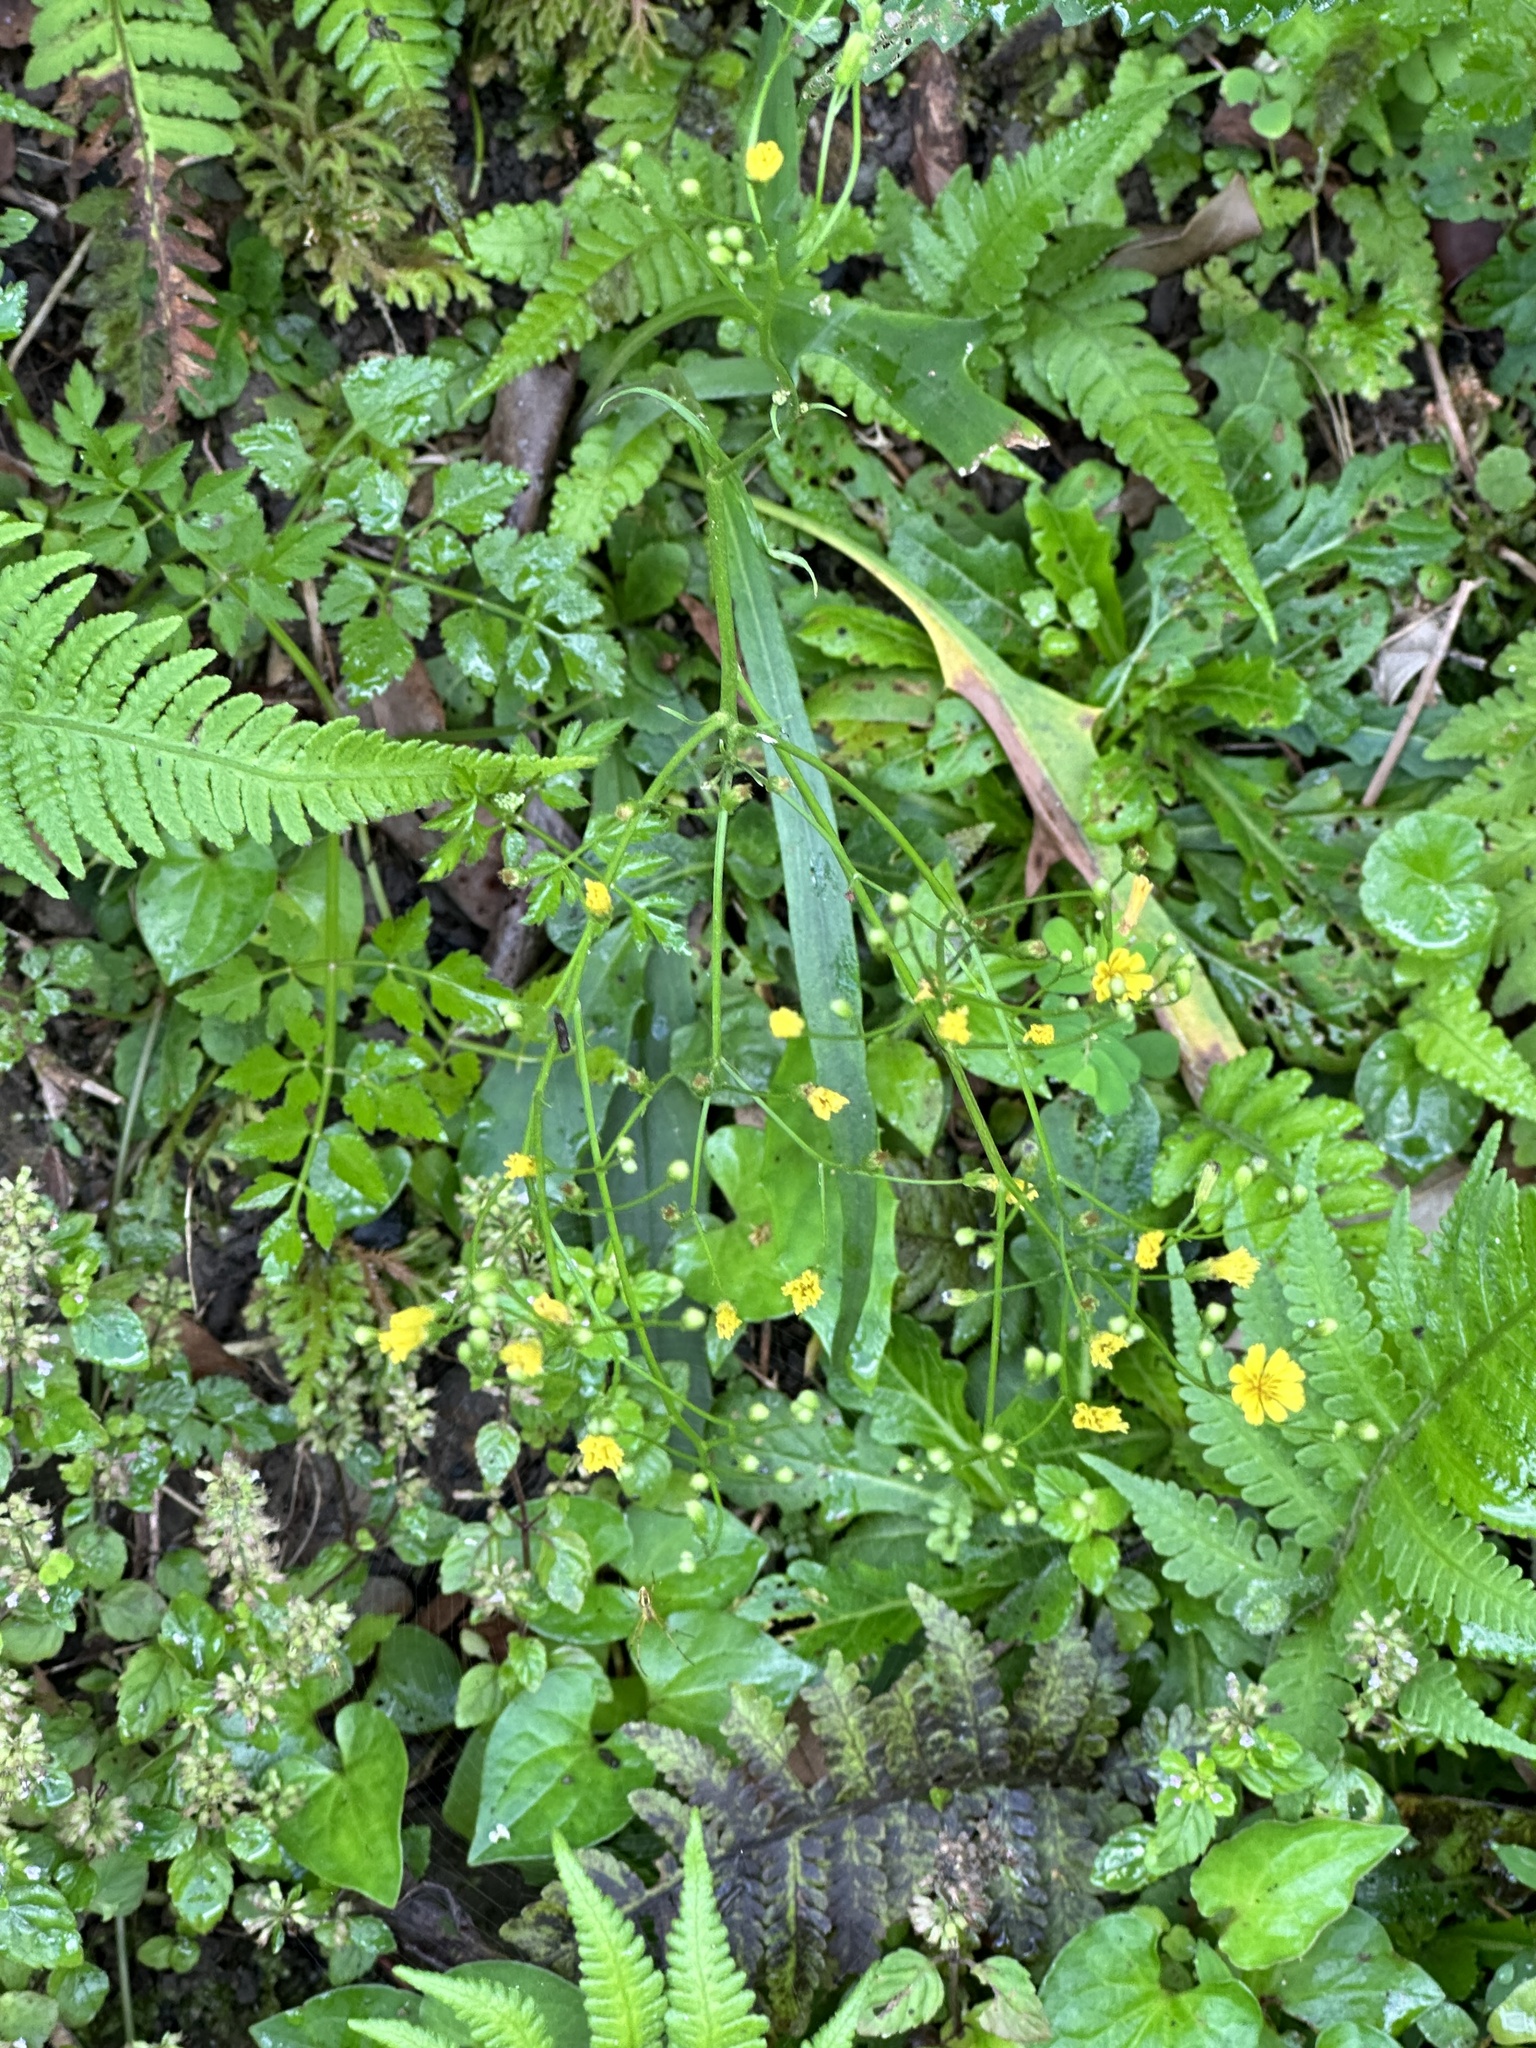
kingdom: Plantae
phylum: Tracheophyta
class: Magnoliopsida
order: Asterales
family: Asteraceae
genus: Ixeridium
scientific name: Ixeridium laevigatum
